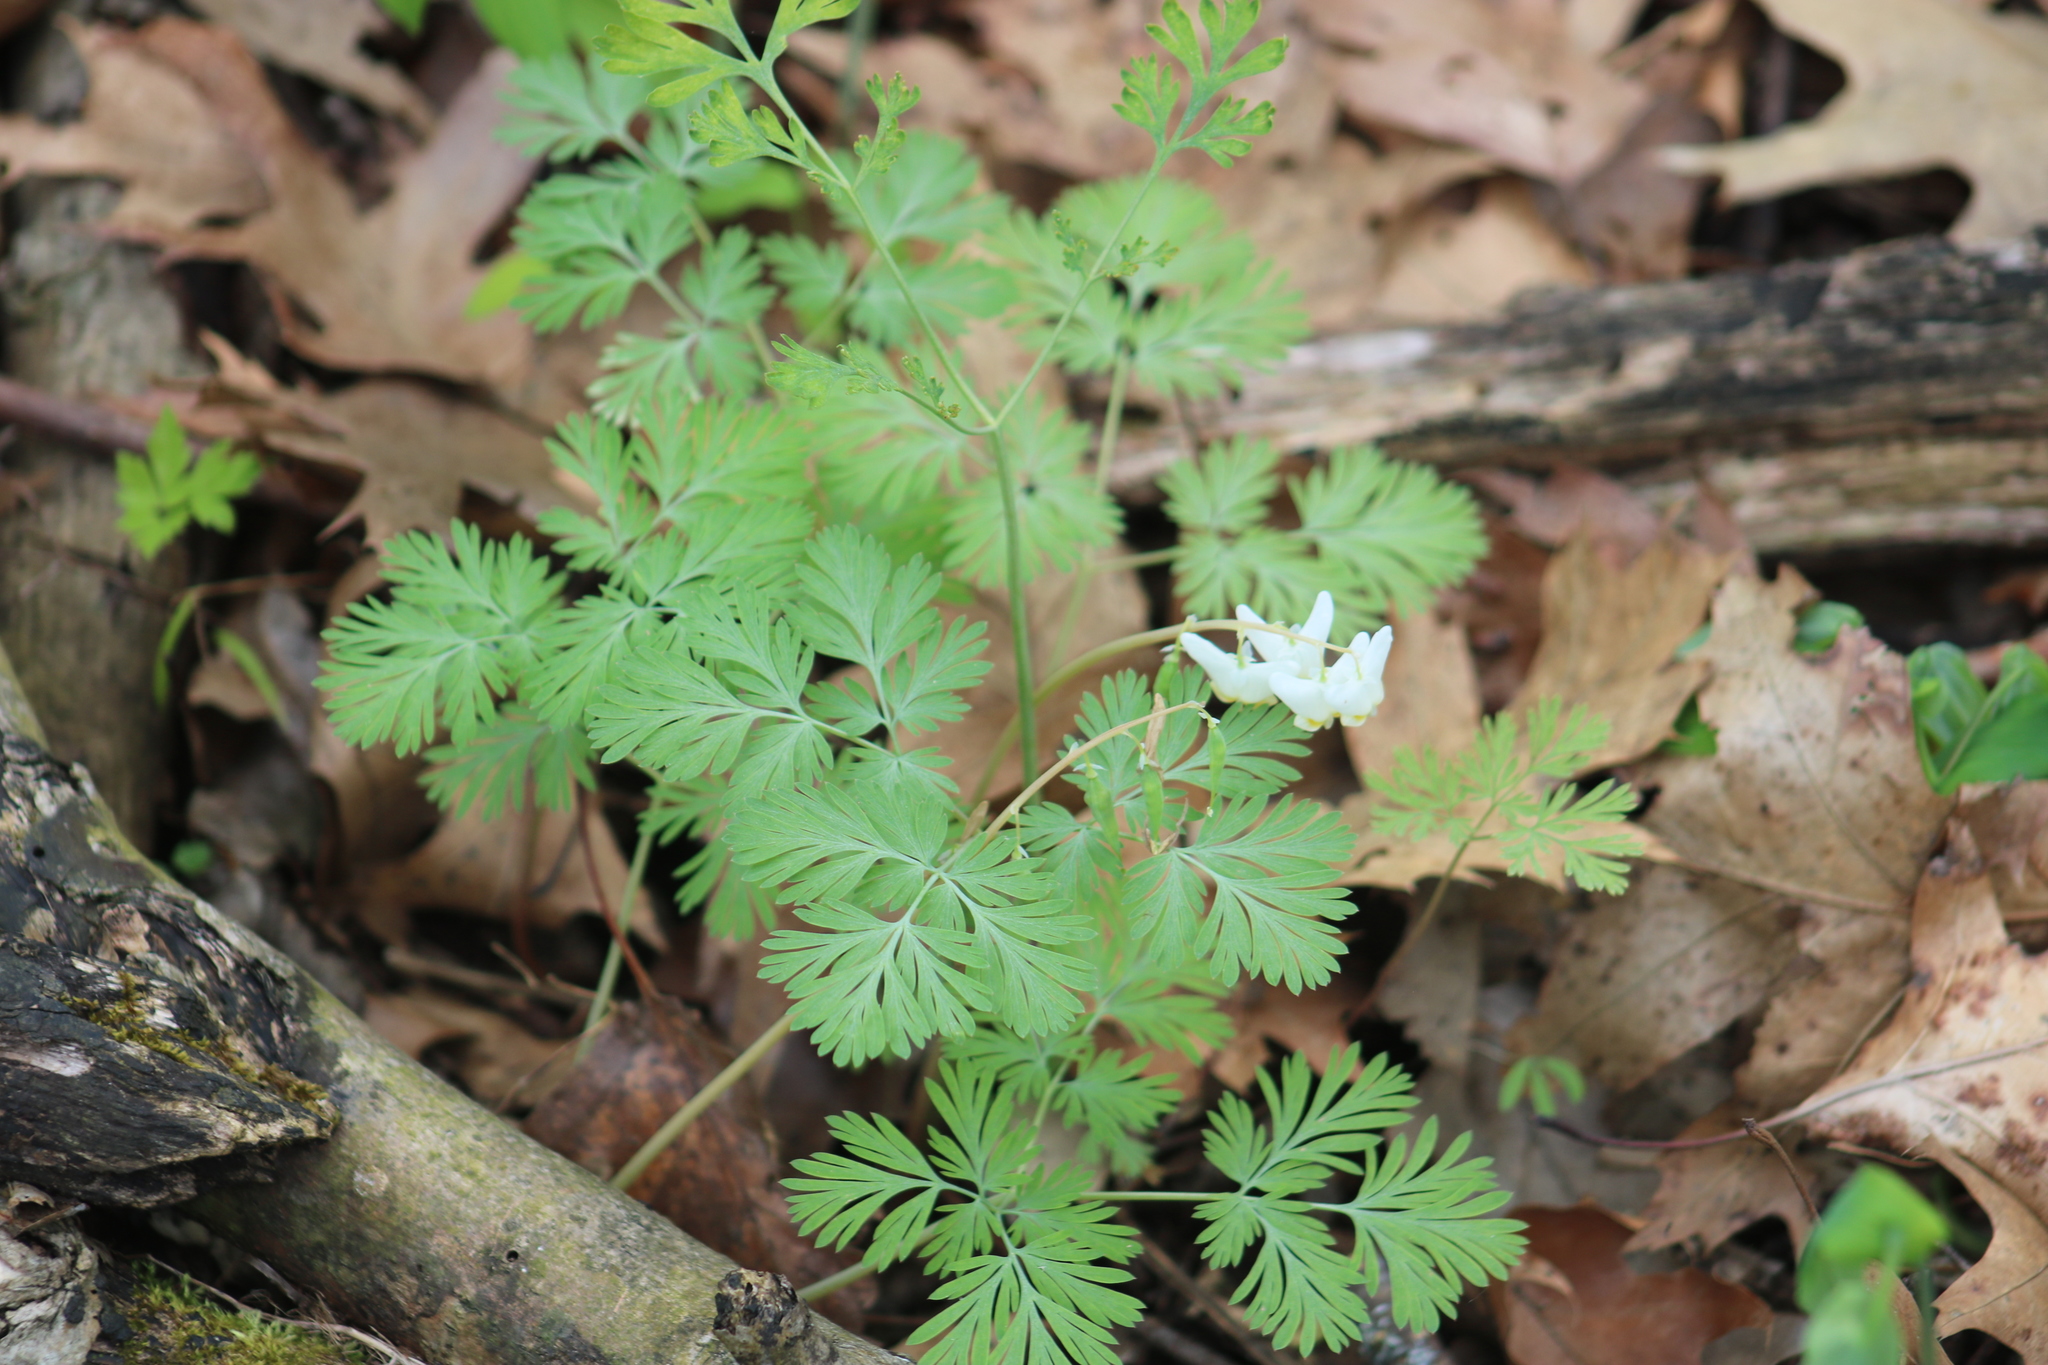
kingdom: Plantae
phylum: Tracheophyta
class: Magnoliopsida
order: Ranunculales
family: Papaveraceae
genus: Dicentra
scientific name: Dicentra cucullaria
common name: Dutchman's breeches
